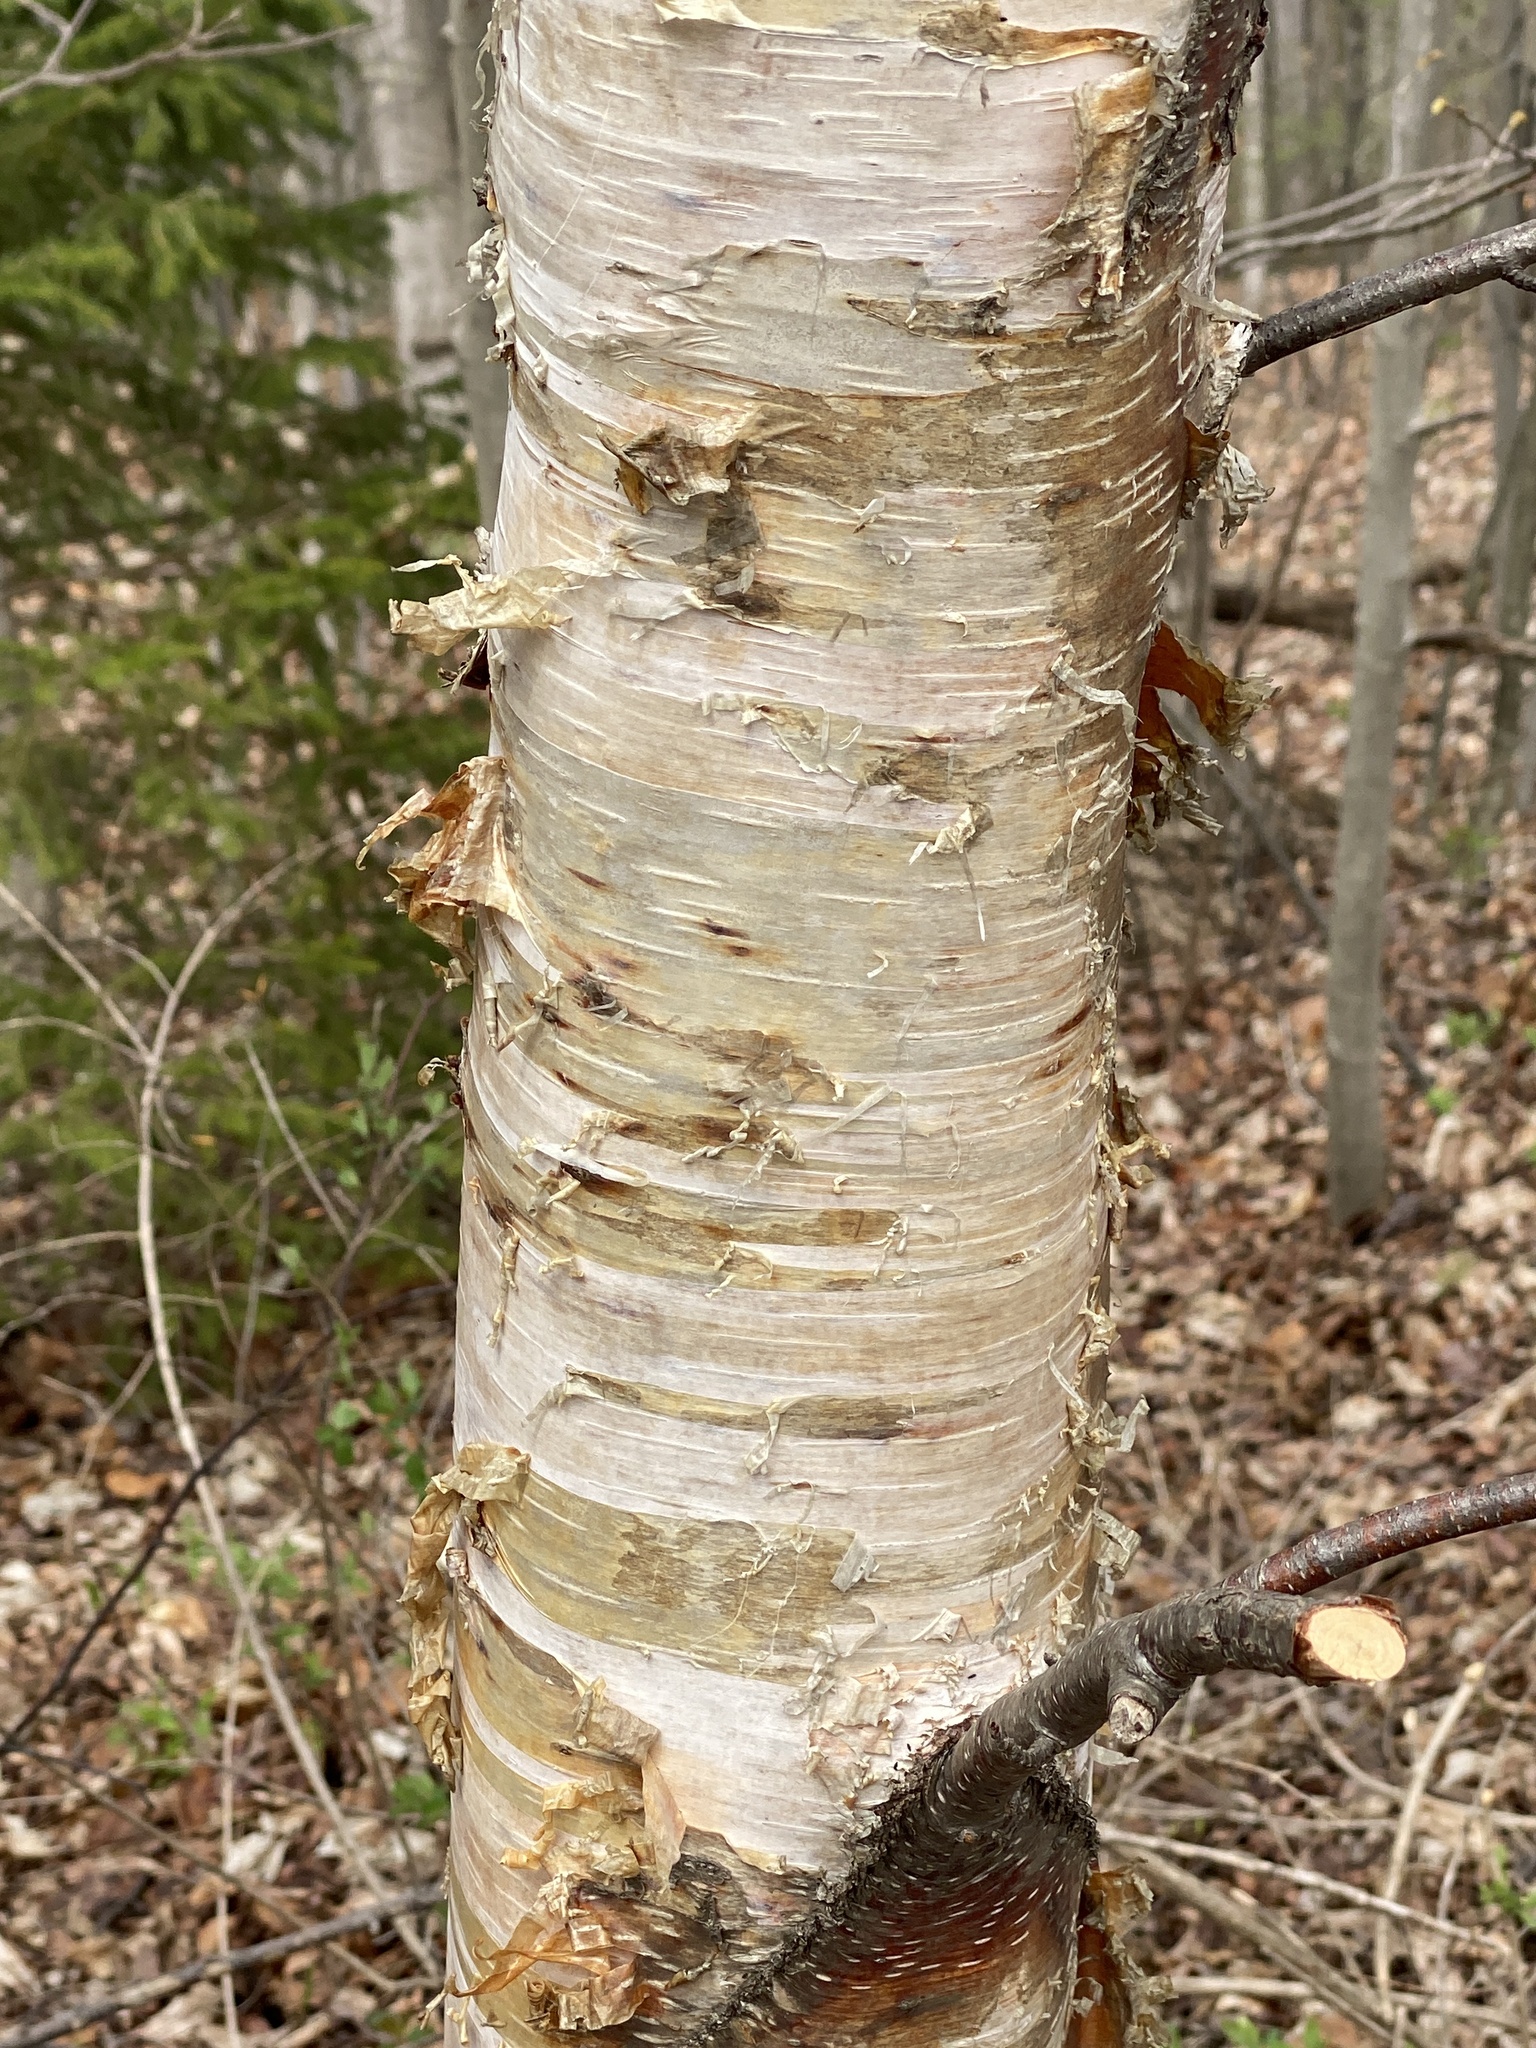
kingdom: Plantae
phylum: Tracheophyta
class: Magnoliopsida
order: Fagales
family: Betulaceae
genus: Betula
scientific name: Betula papyrifera
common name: Paper birch
